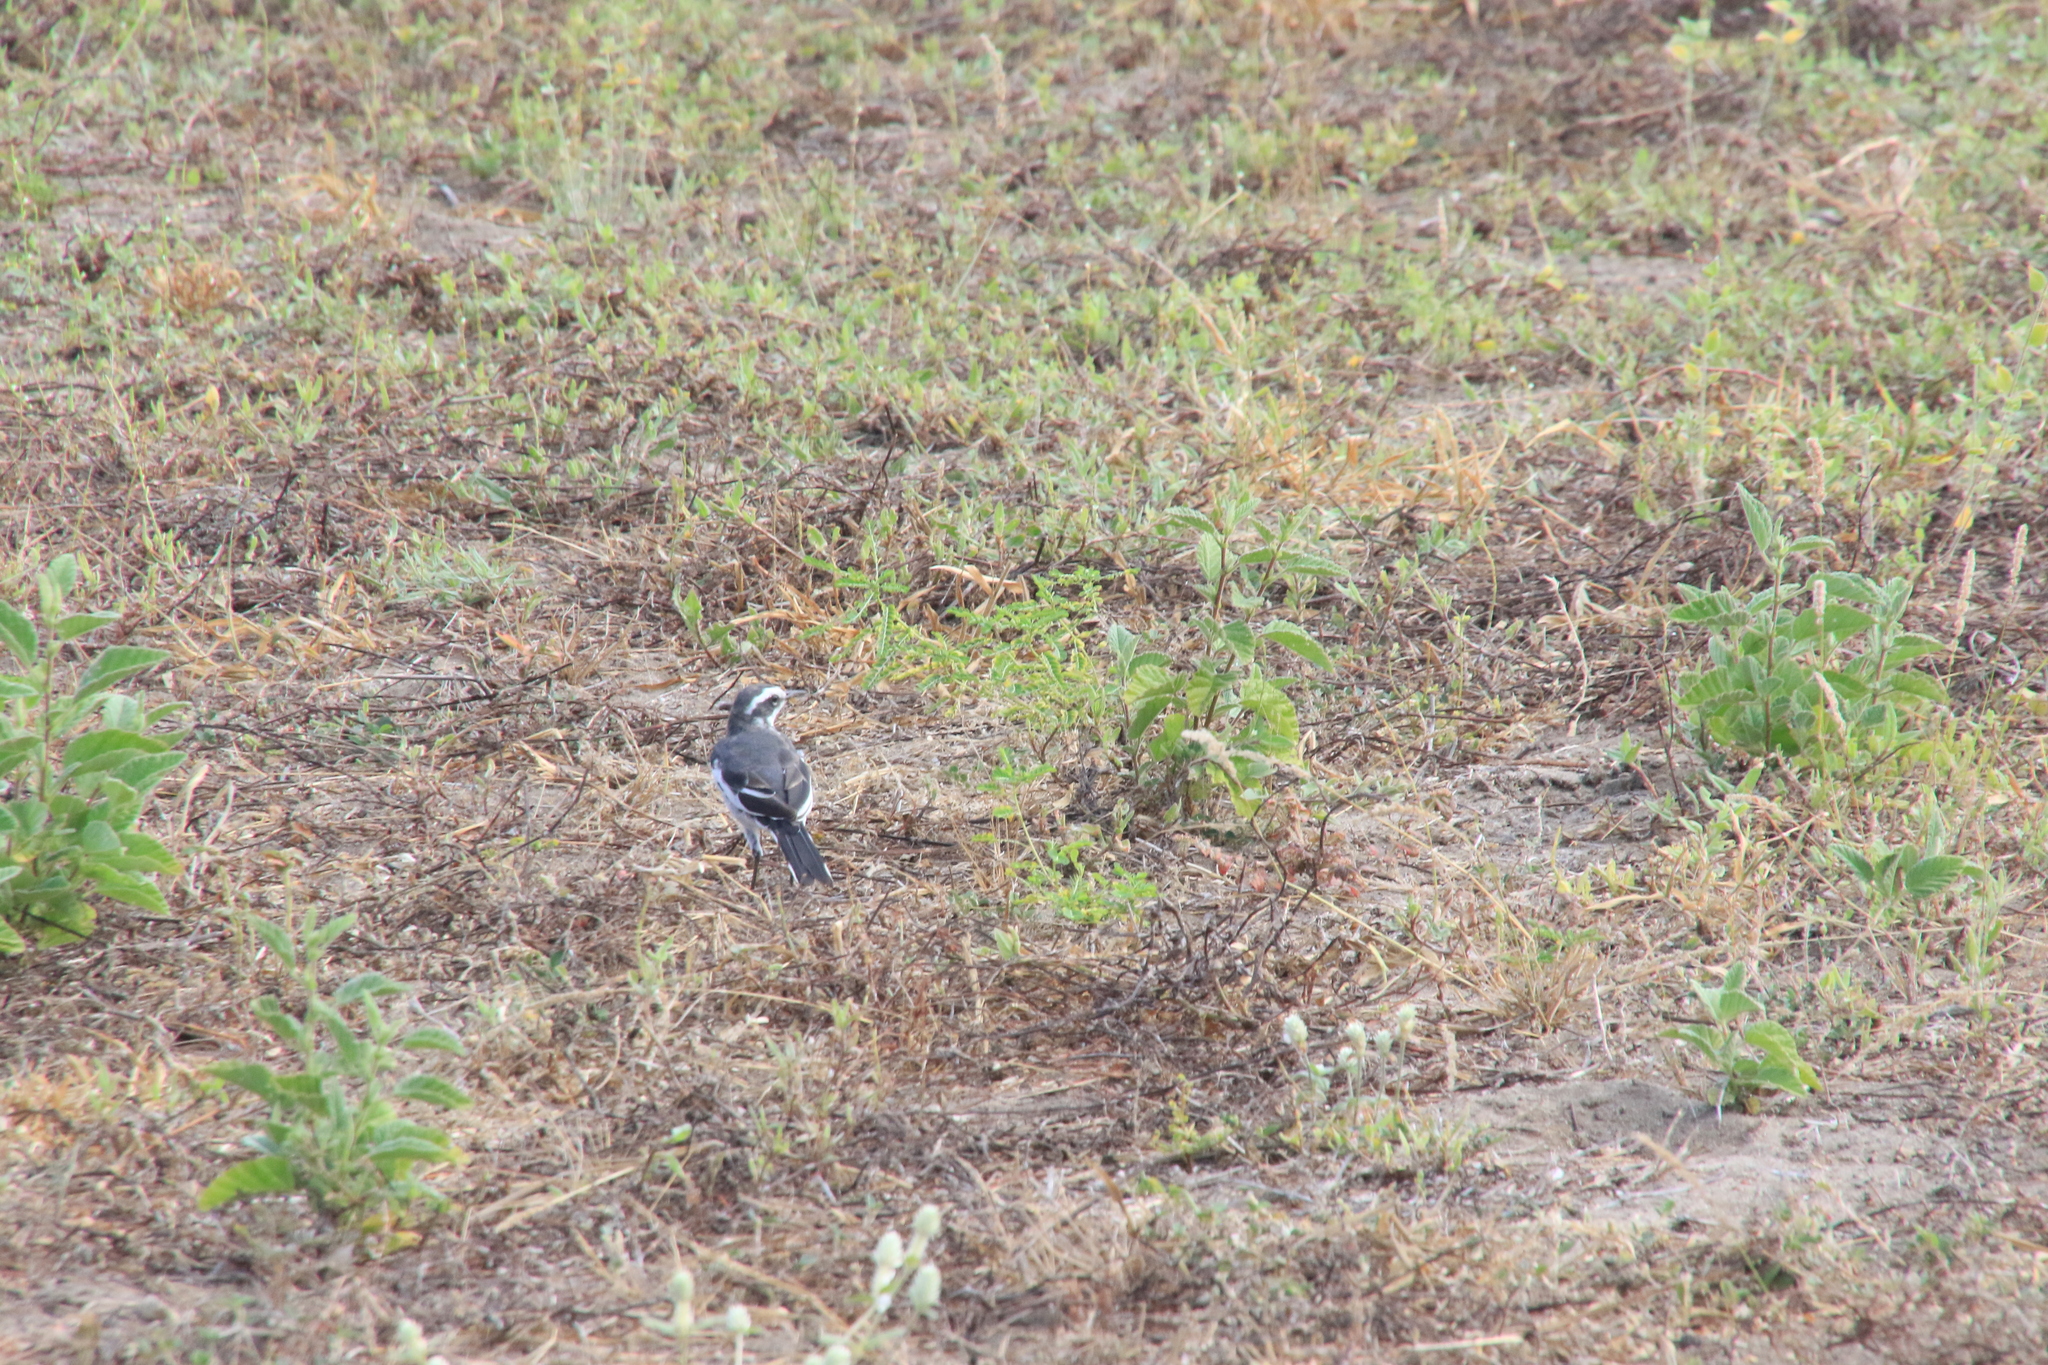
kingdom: Animalia
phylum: Chordata
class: Aves
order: Passeriformes
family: Motacillidae
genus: Motacilla
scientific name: Motacilla aguimp
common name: African pied wagtail
